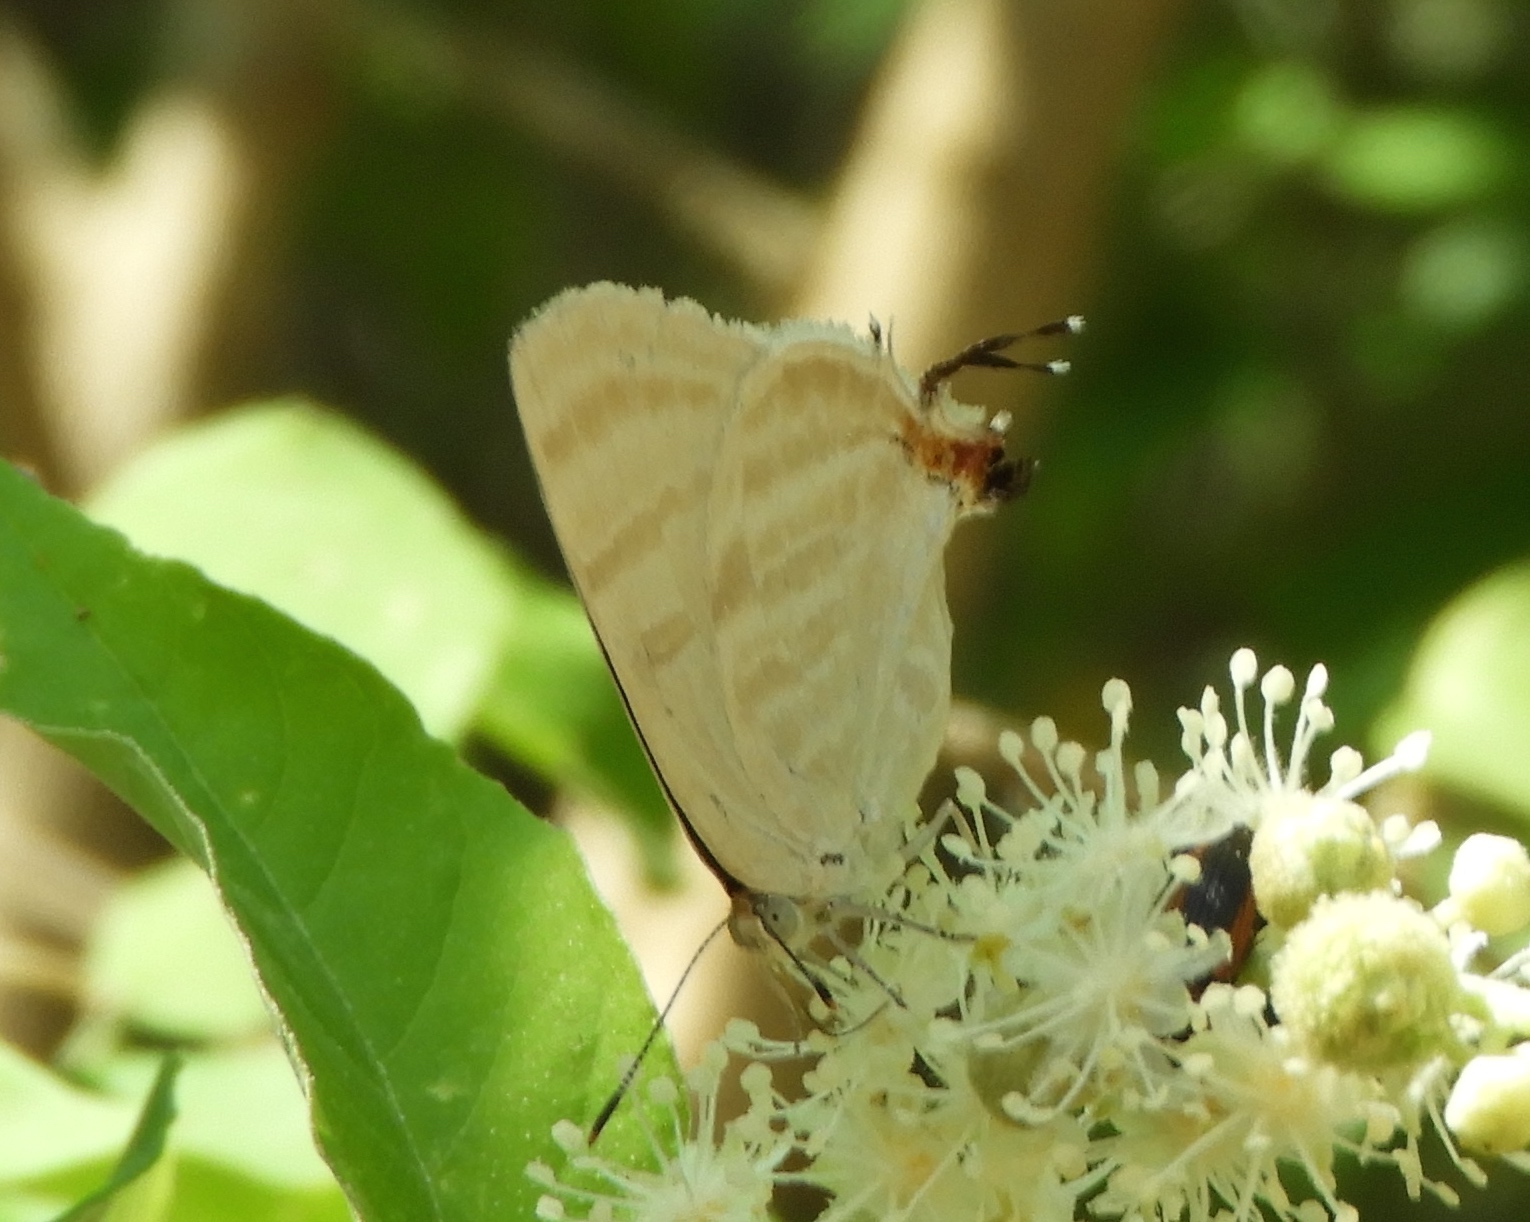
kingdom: Animalia
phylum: Arthropoda
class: Insecta
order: Lepidoptera
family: Lycaenidae
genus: Dolymorpha
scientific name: Dolymorpha jada
